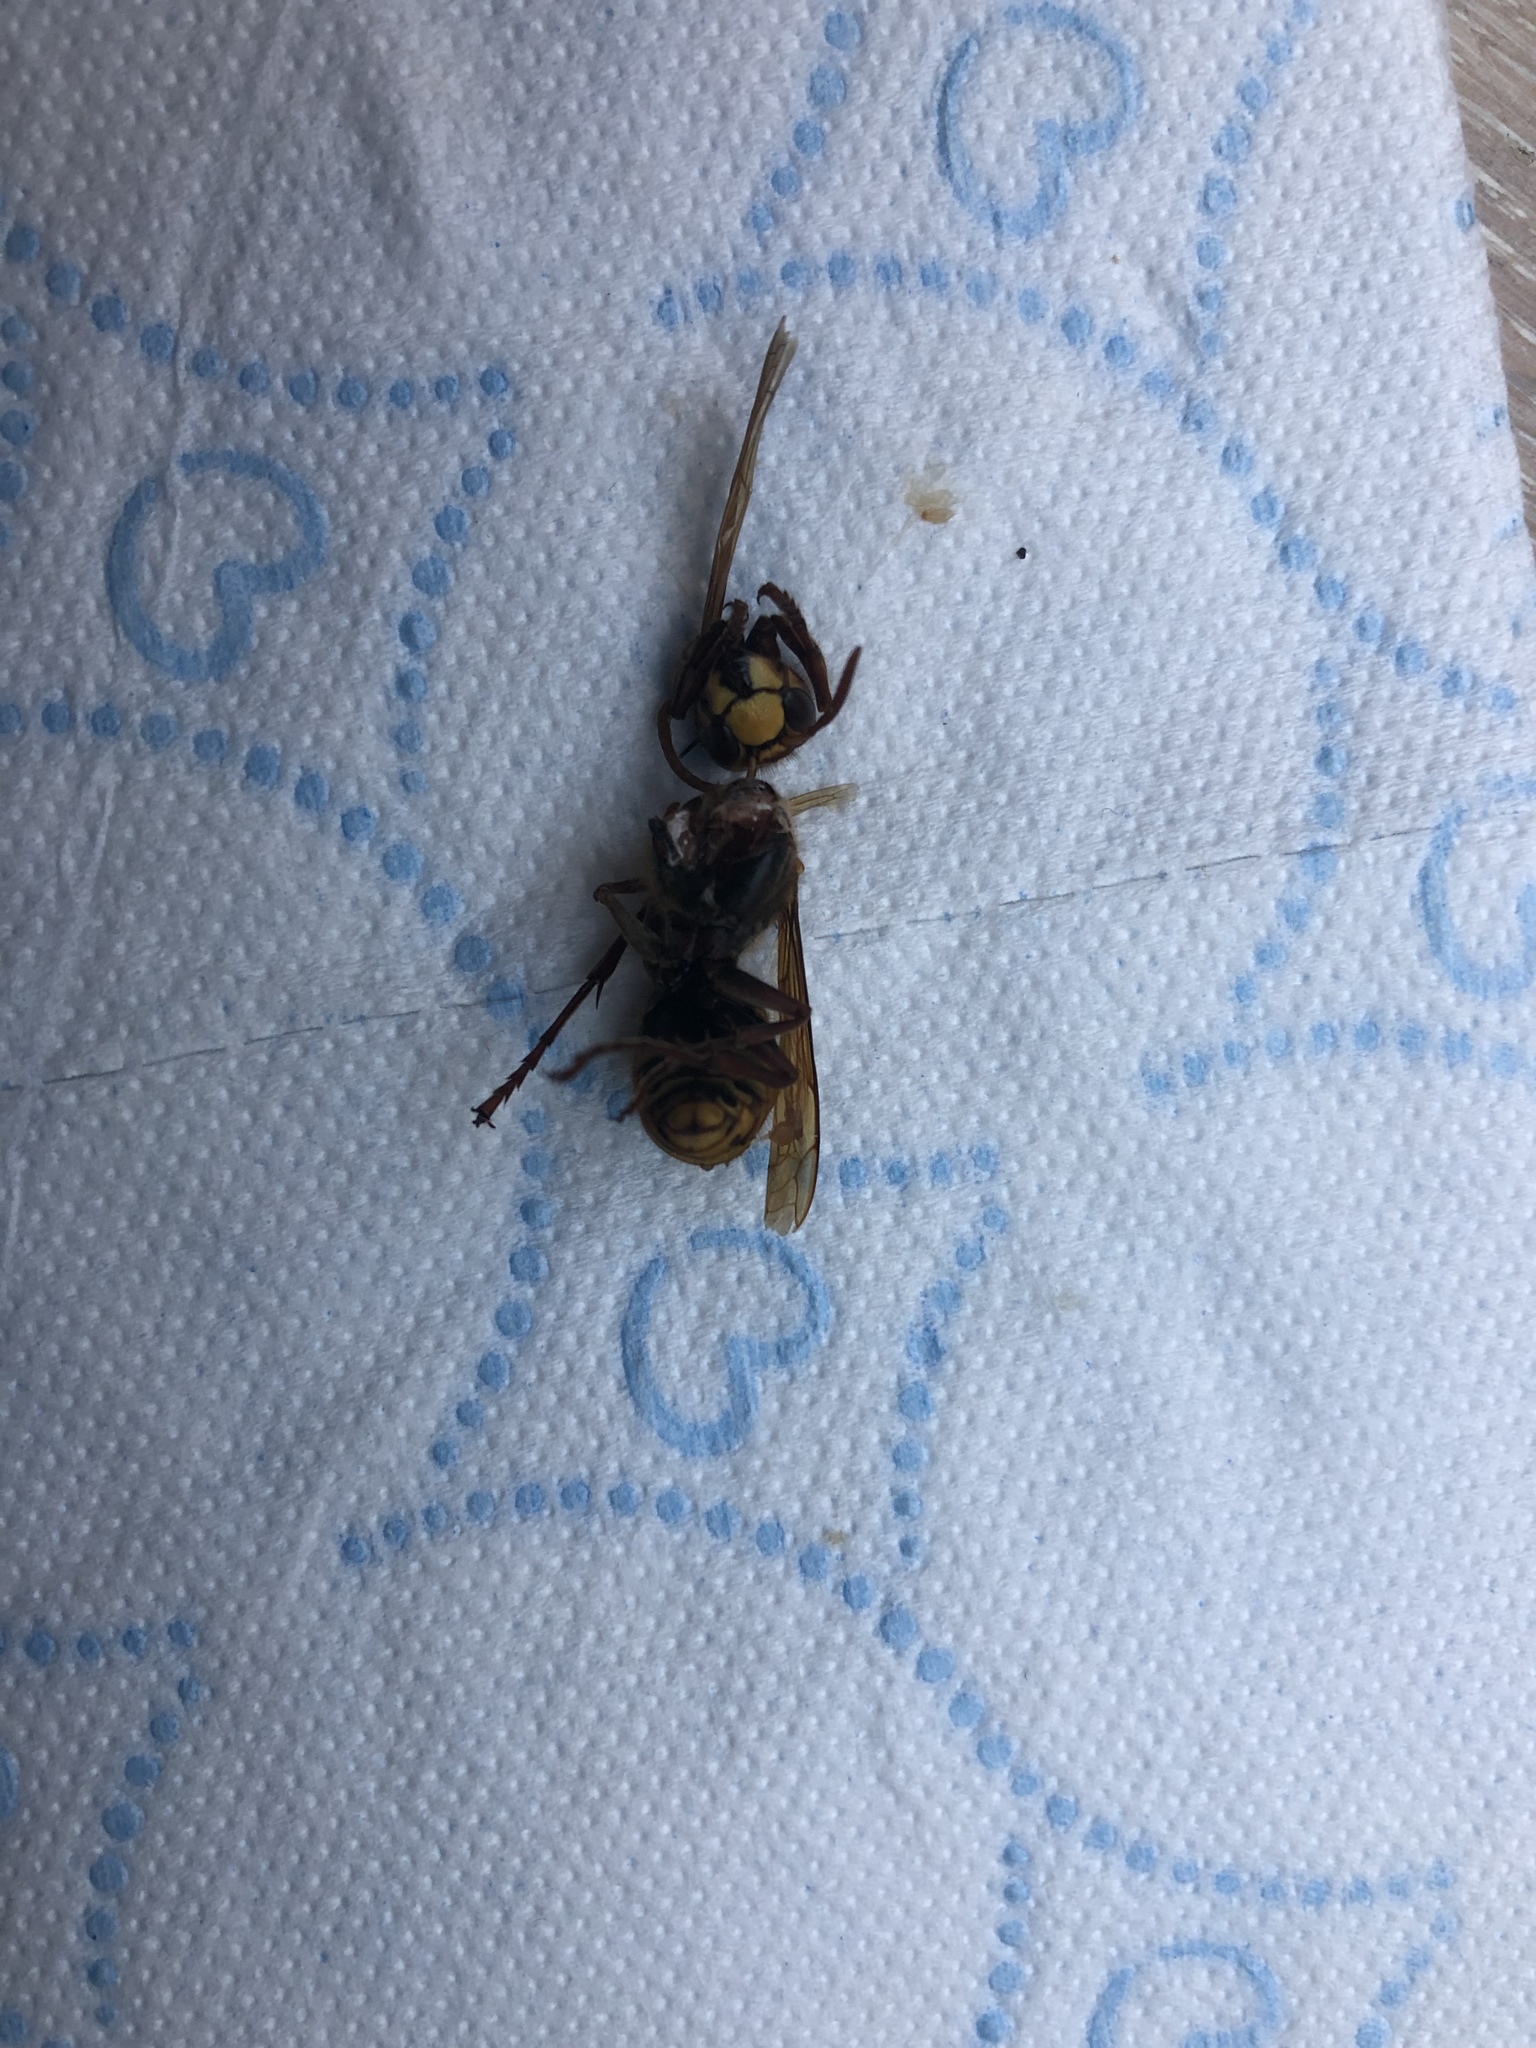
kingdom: Animalia
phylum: Arthropoda
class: Insecta
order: Hymenoptera
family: Vespidae
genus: Vespa
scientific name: Vespa crabro
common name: Hornet
